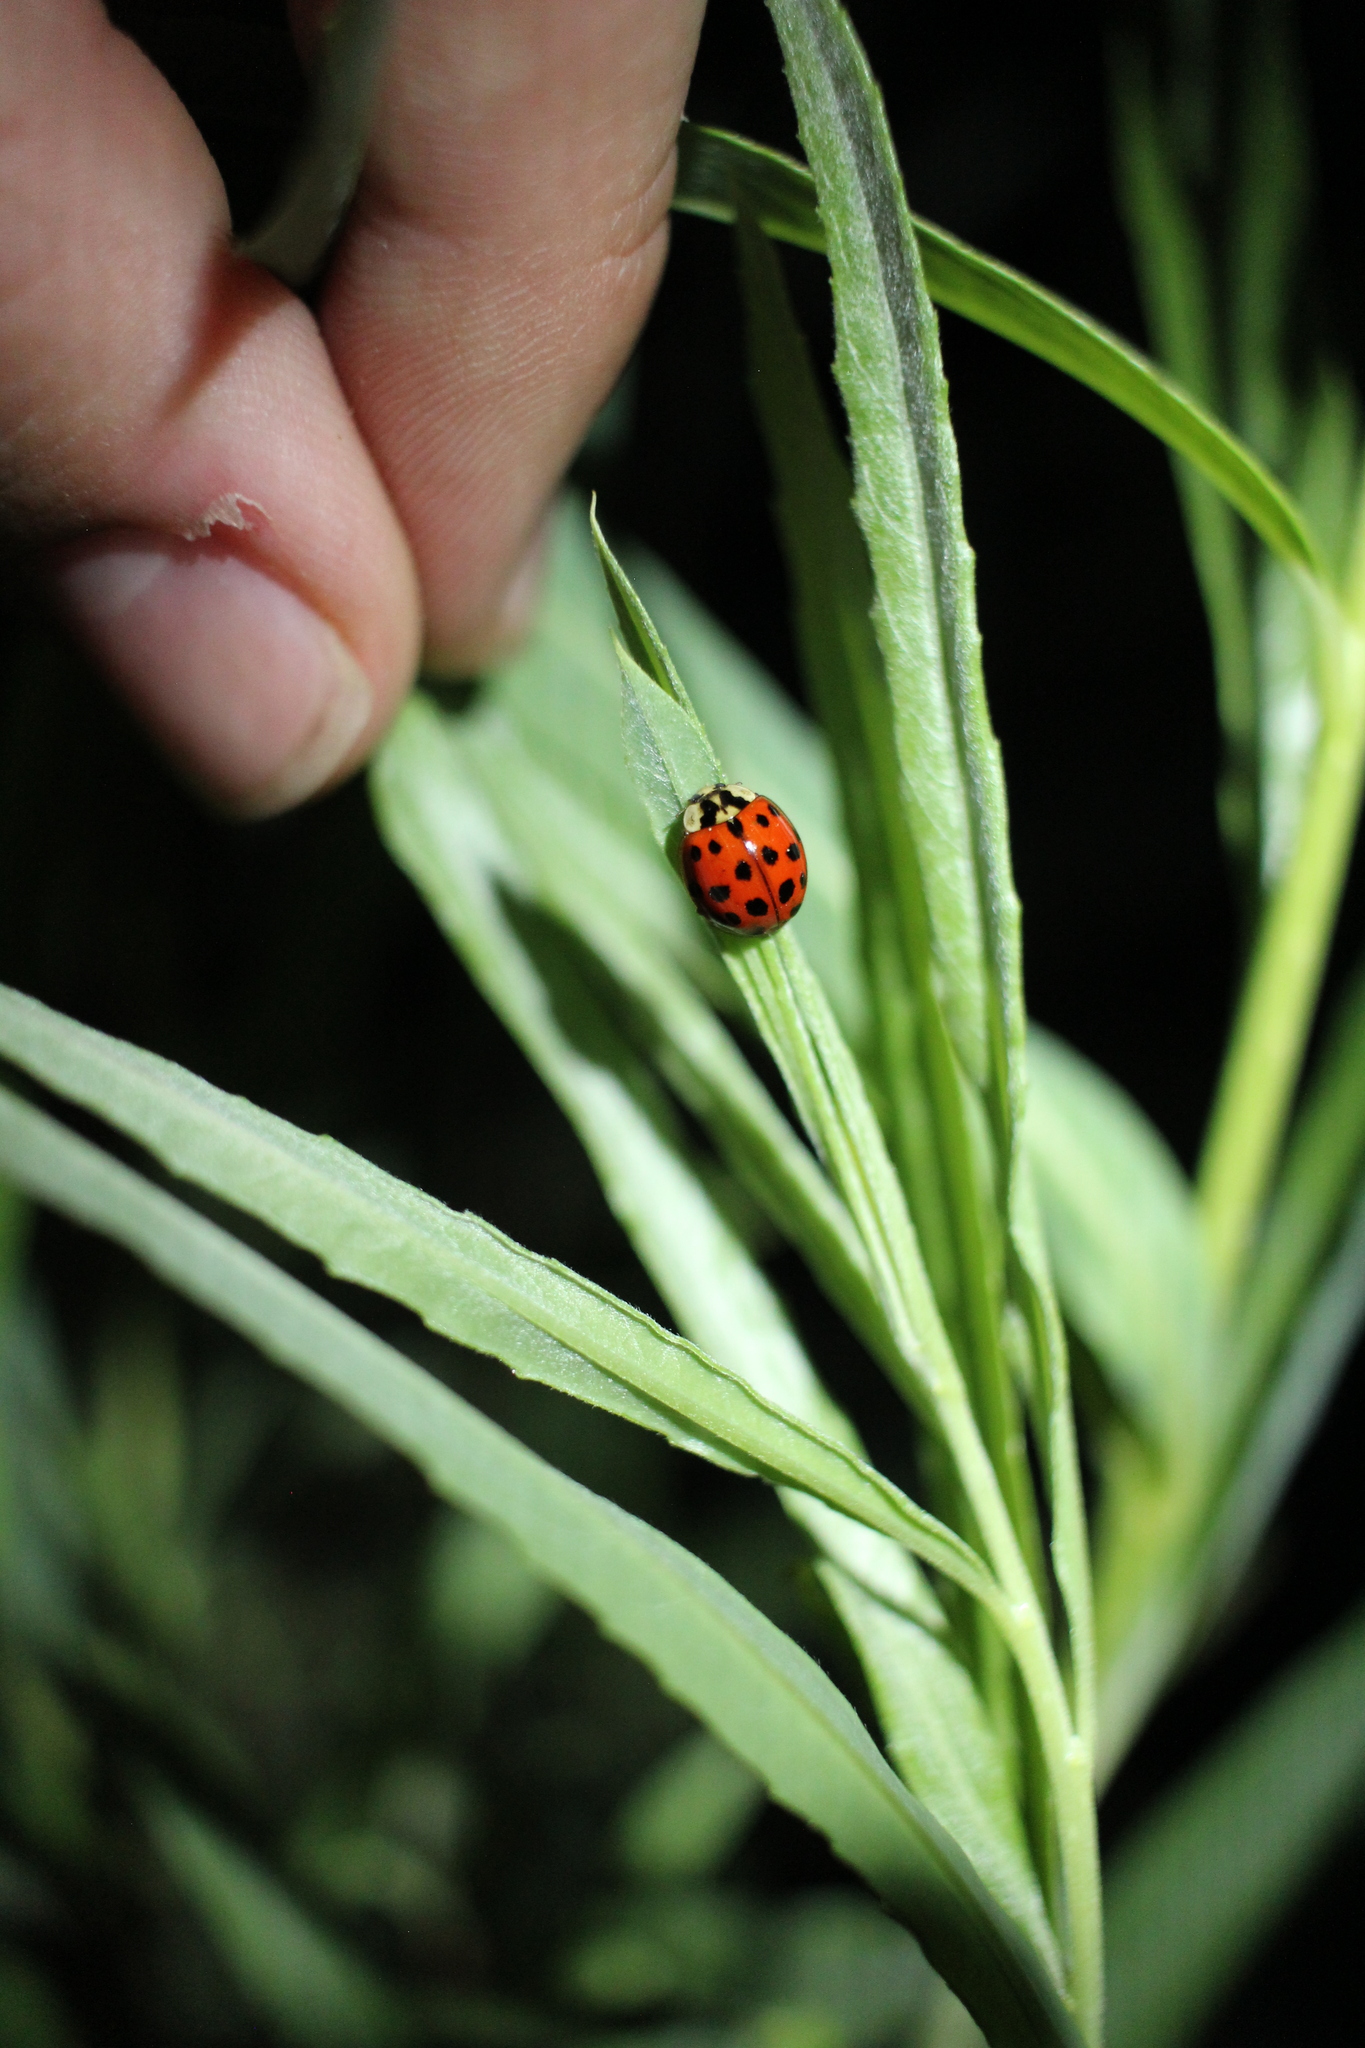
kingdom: Animalia
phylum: Arthropoda
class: Insecta
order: Coleoptera
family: Coccinellidae
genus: Harmonia
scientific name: Harmonia axyridis
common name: Harlequin ladybird
